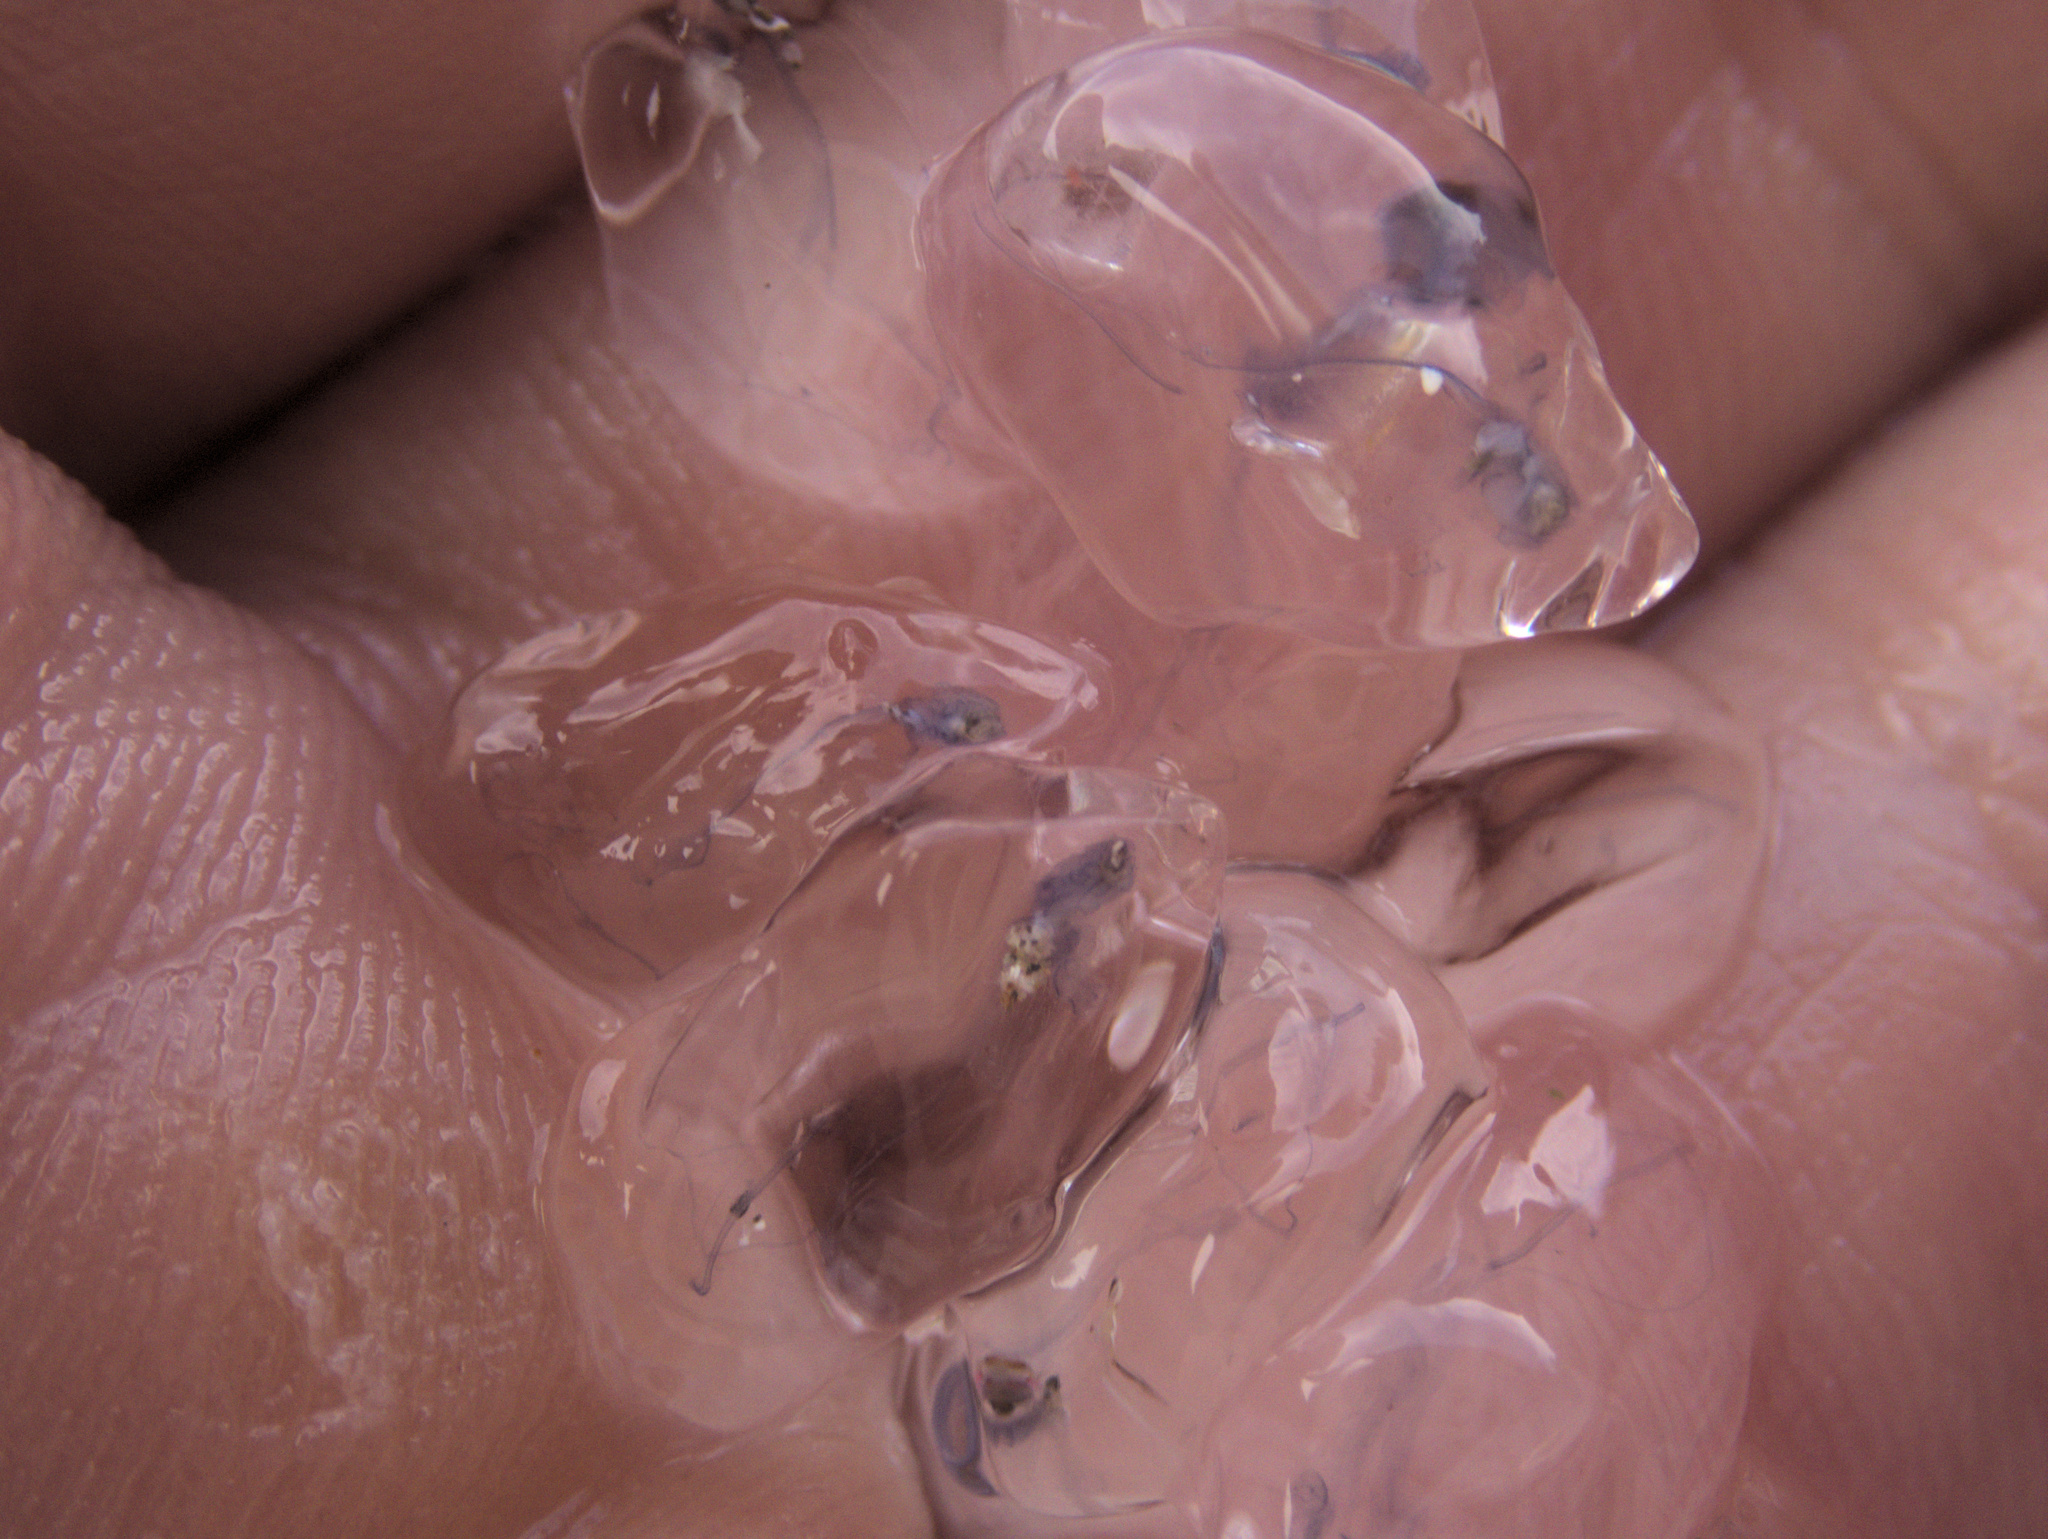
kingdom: Animalia
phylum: Chordata
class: Thaliacea
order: Salpida
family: Salpidae
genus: Thalia
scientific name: Thalia democratica
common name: Salp
